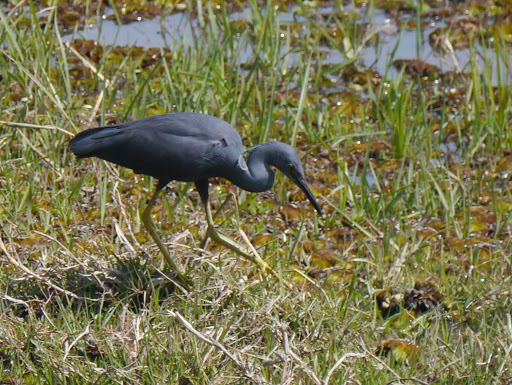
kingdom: Animalia
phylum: Chordata
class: Aves
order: Pelecaniformes
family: Ardeidae
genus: Egretta
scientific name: Egretta vinaceigula
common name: Slaty egret
